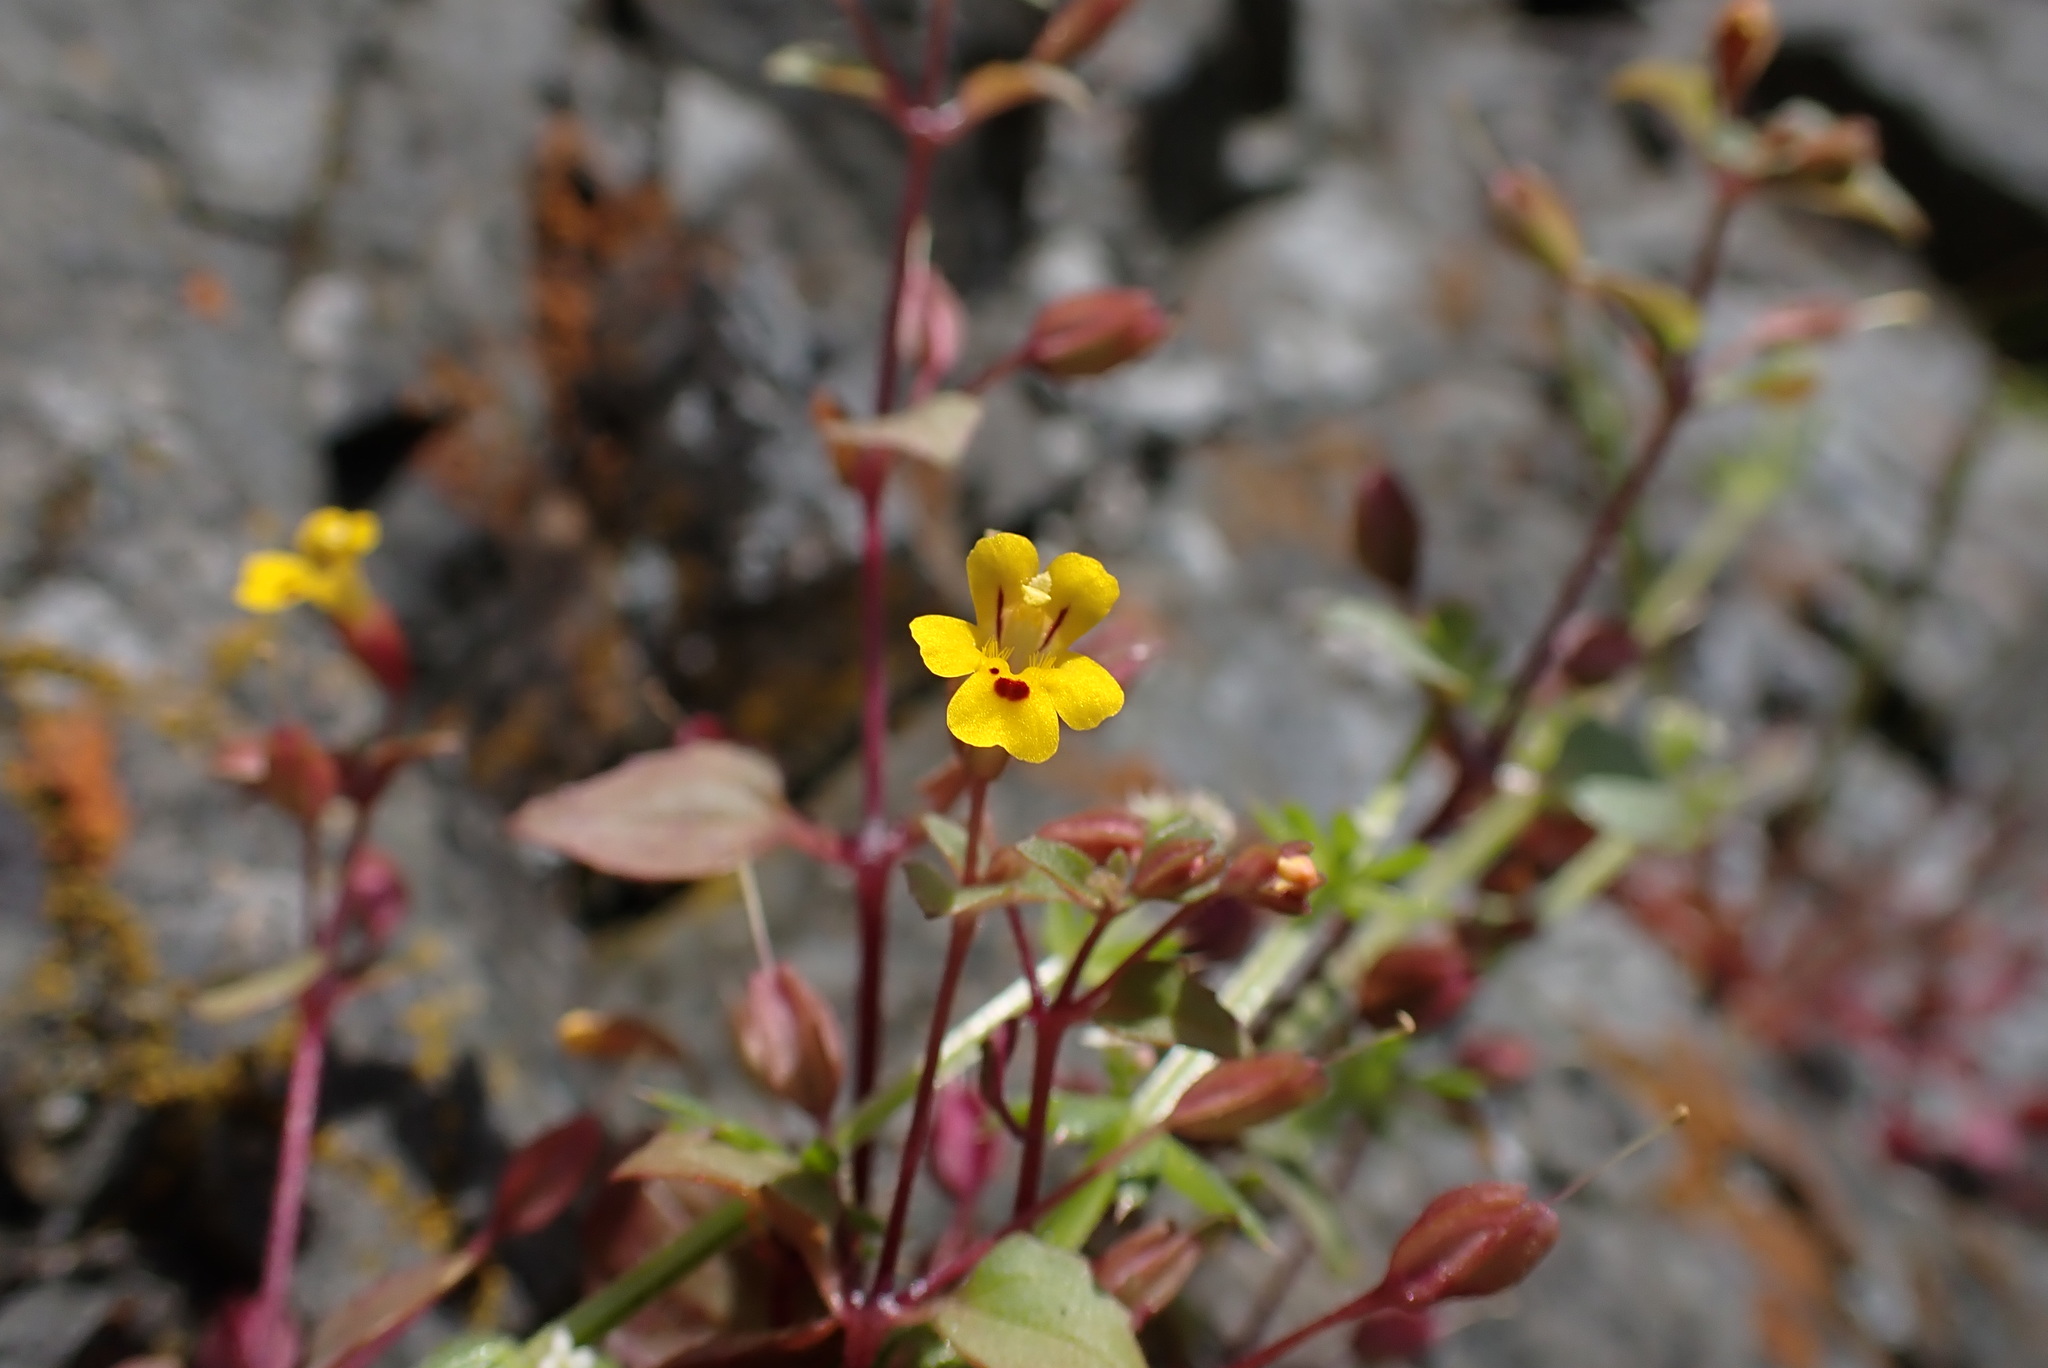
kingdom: Plantae
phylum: Tracheophyta
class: Magnoliopsida
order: Lamiales
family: Phrymaceae
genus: Erythranthe
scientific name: Erythranthe alsinoides
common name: Chickweed monkeyflower
